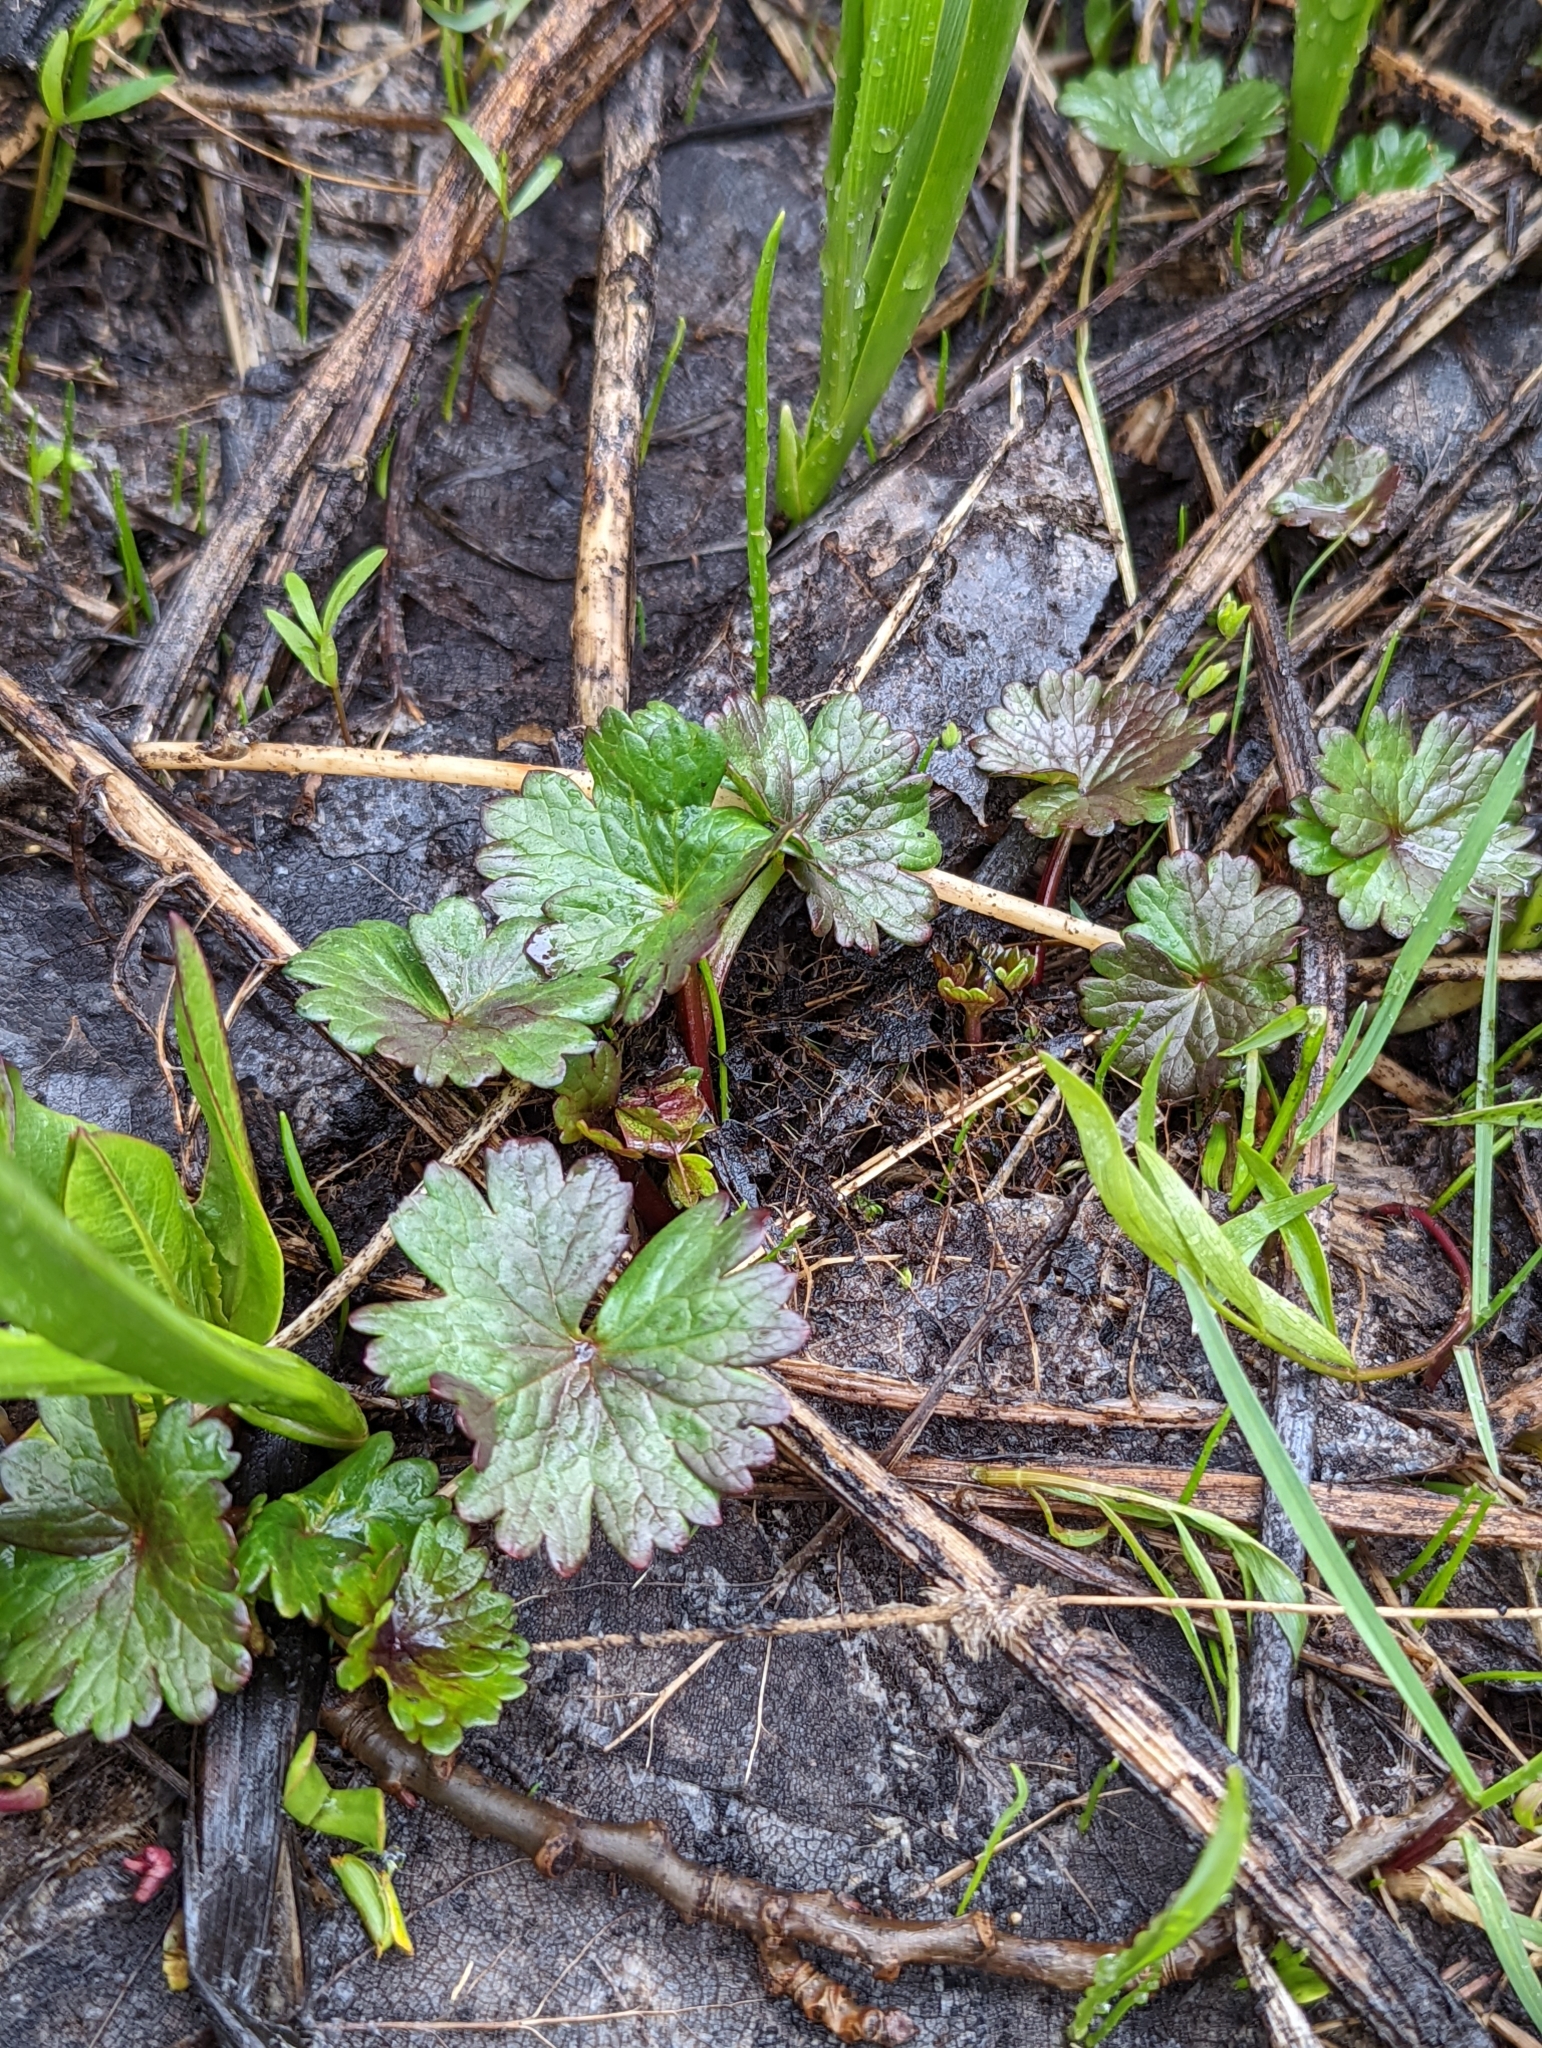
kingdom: Plantae
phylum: Tracheophyta
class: Magnoliopsida
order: Malvales
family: Malvaceae
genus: Sidalcea
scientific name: Sidalcea oregana
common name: Oregon checker-mallow
